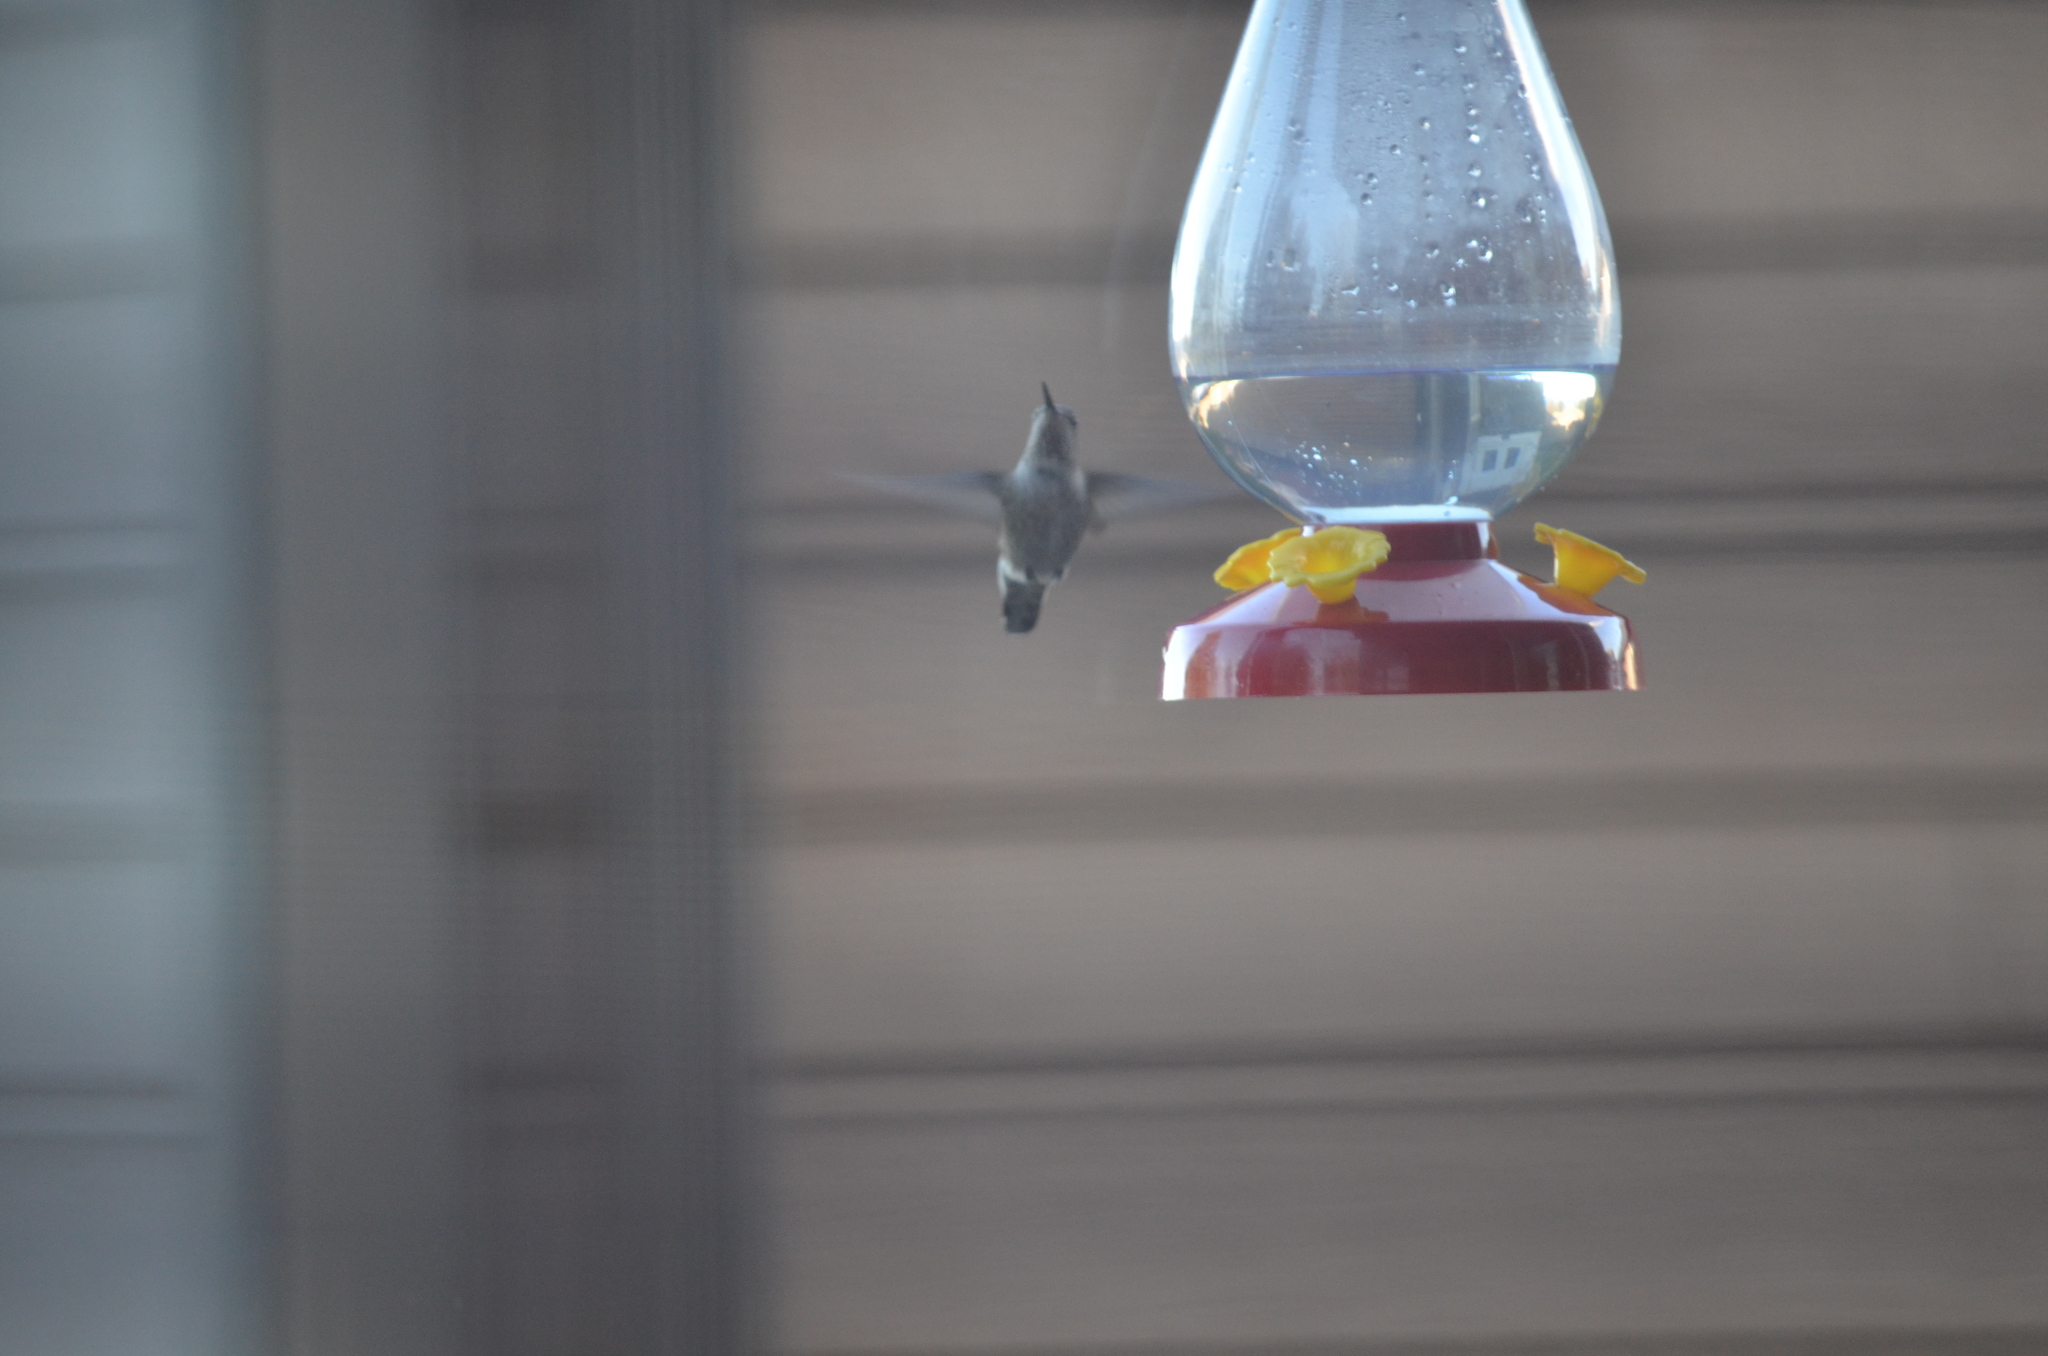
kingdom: Animalia
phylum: Chordata
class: Aves
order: Apodiformes
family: Trochilidae
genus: Calypte
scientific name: Calypte anna
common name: Anna's hummingbird
